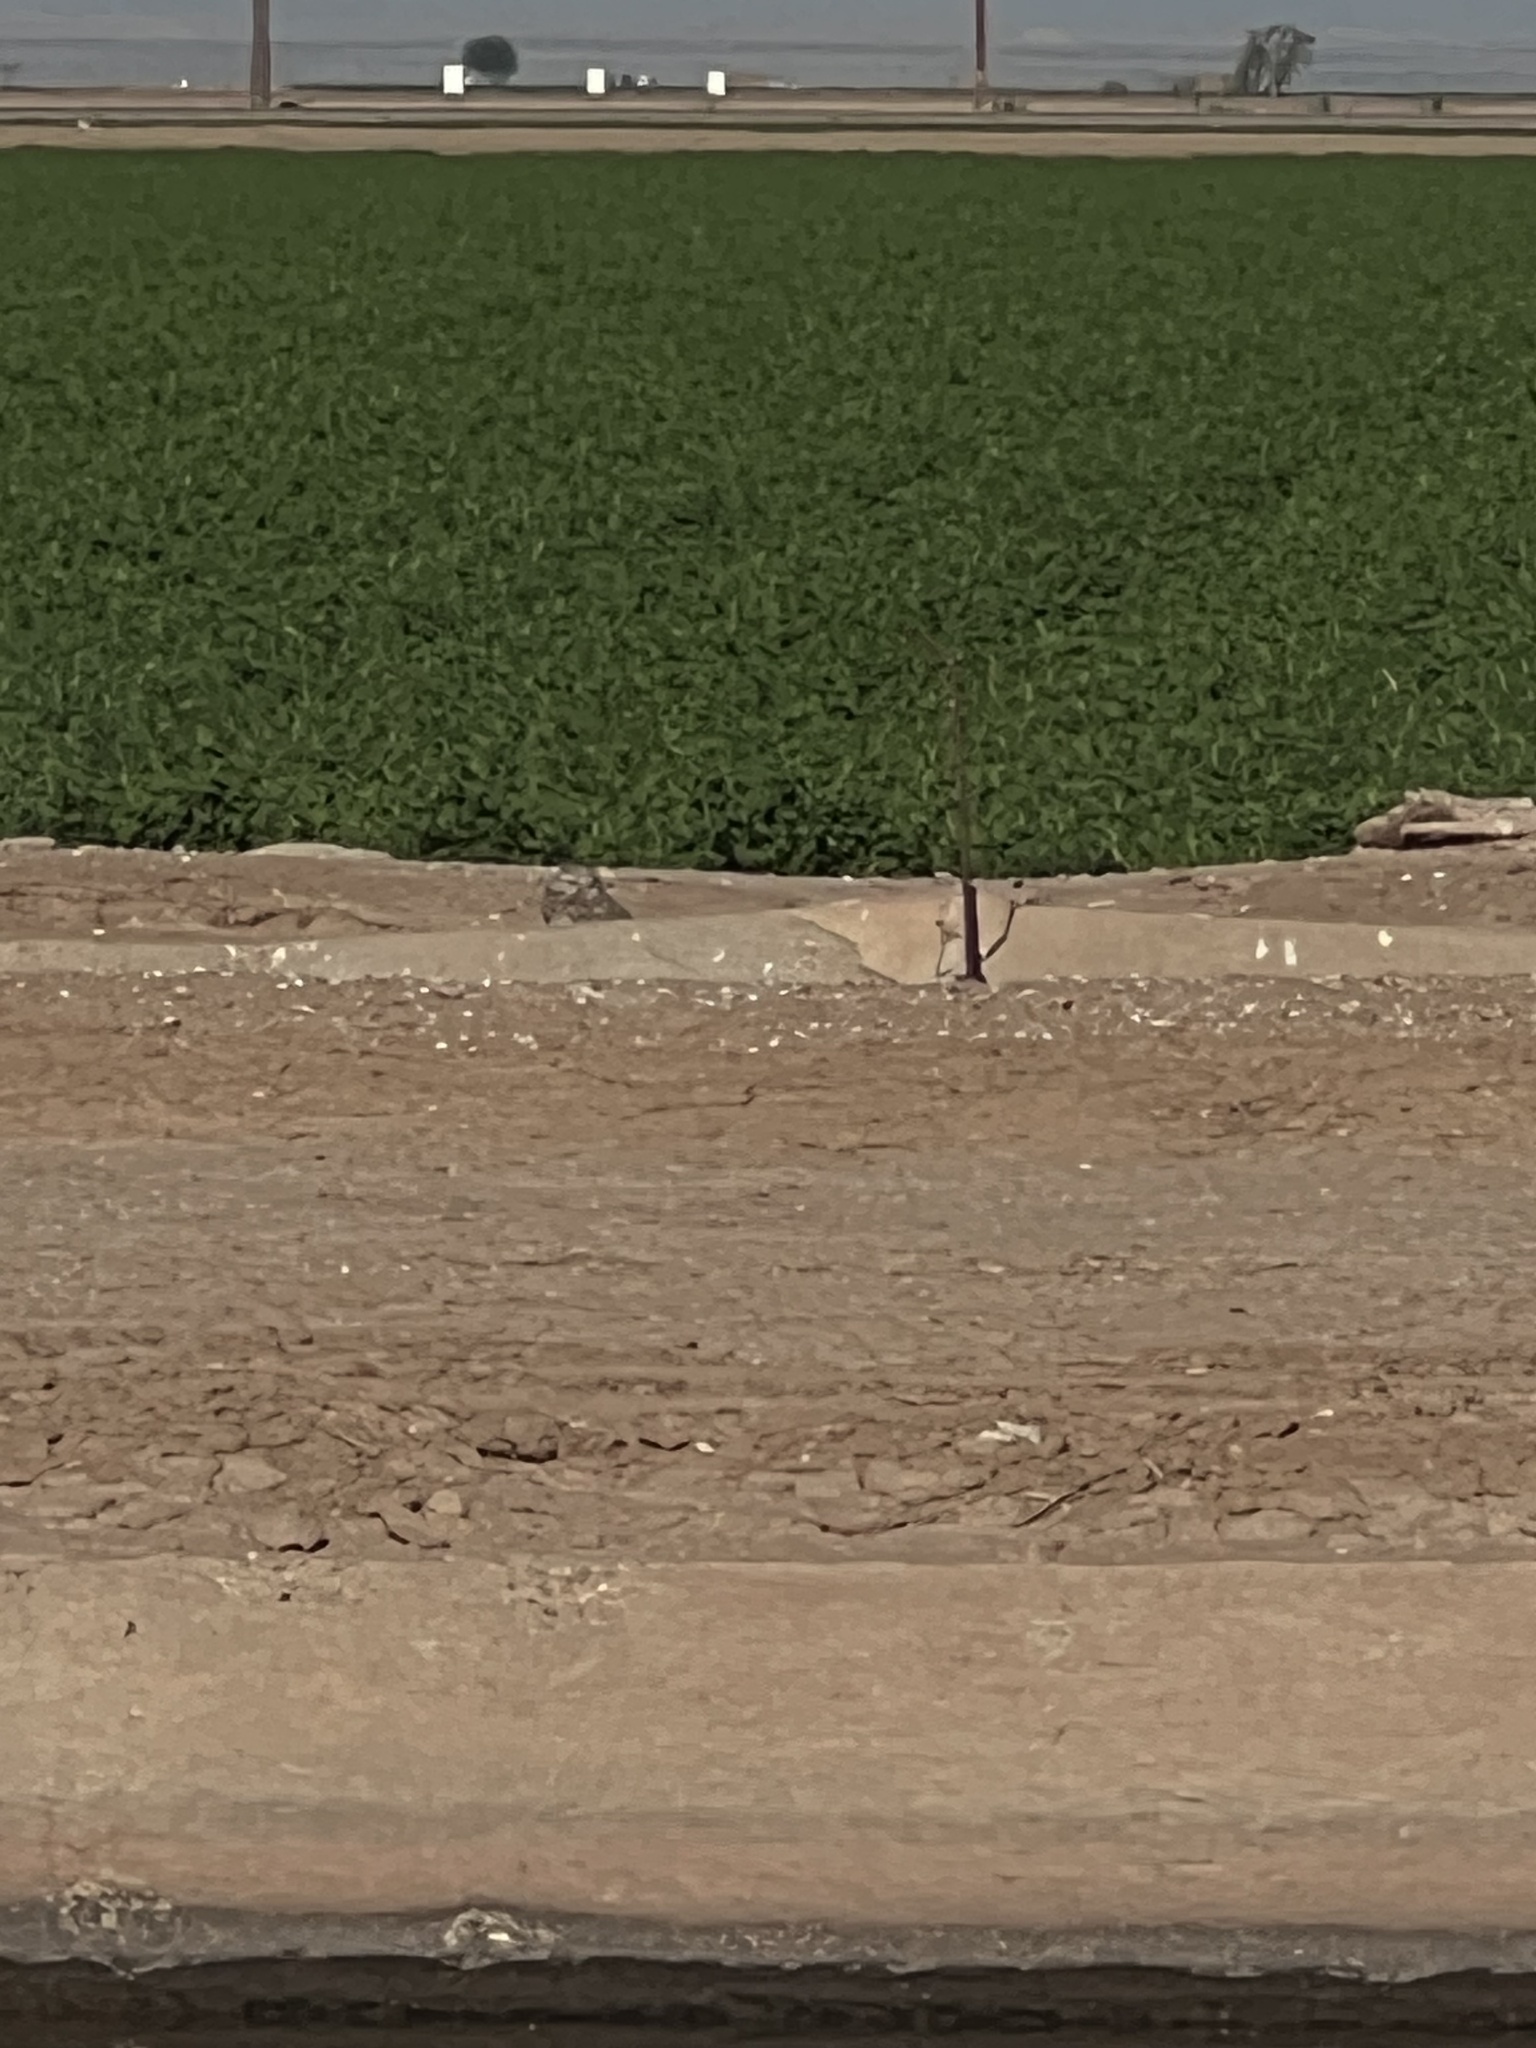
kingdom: Animalia
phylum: Chordata
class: Aves
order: Strigiformes
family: Strigidae
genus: Athene
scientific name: Athene cunicularia
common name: Burrowing owl
